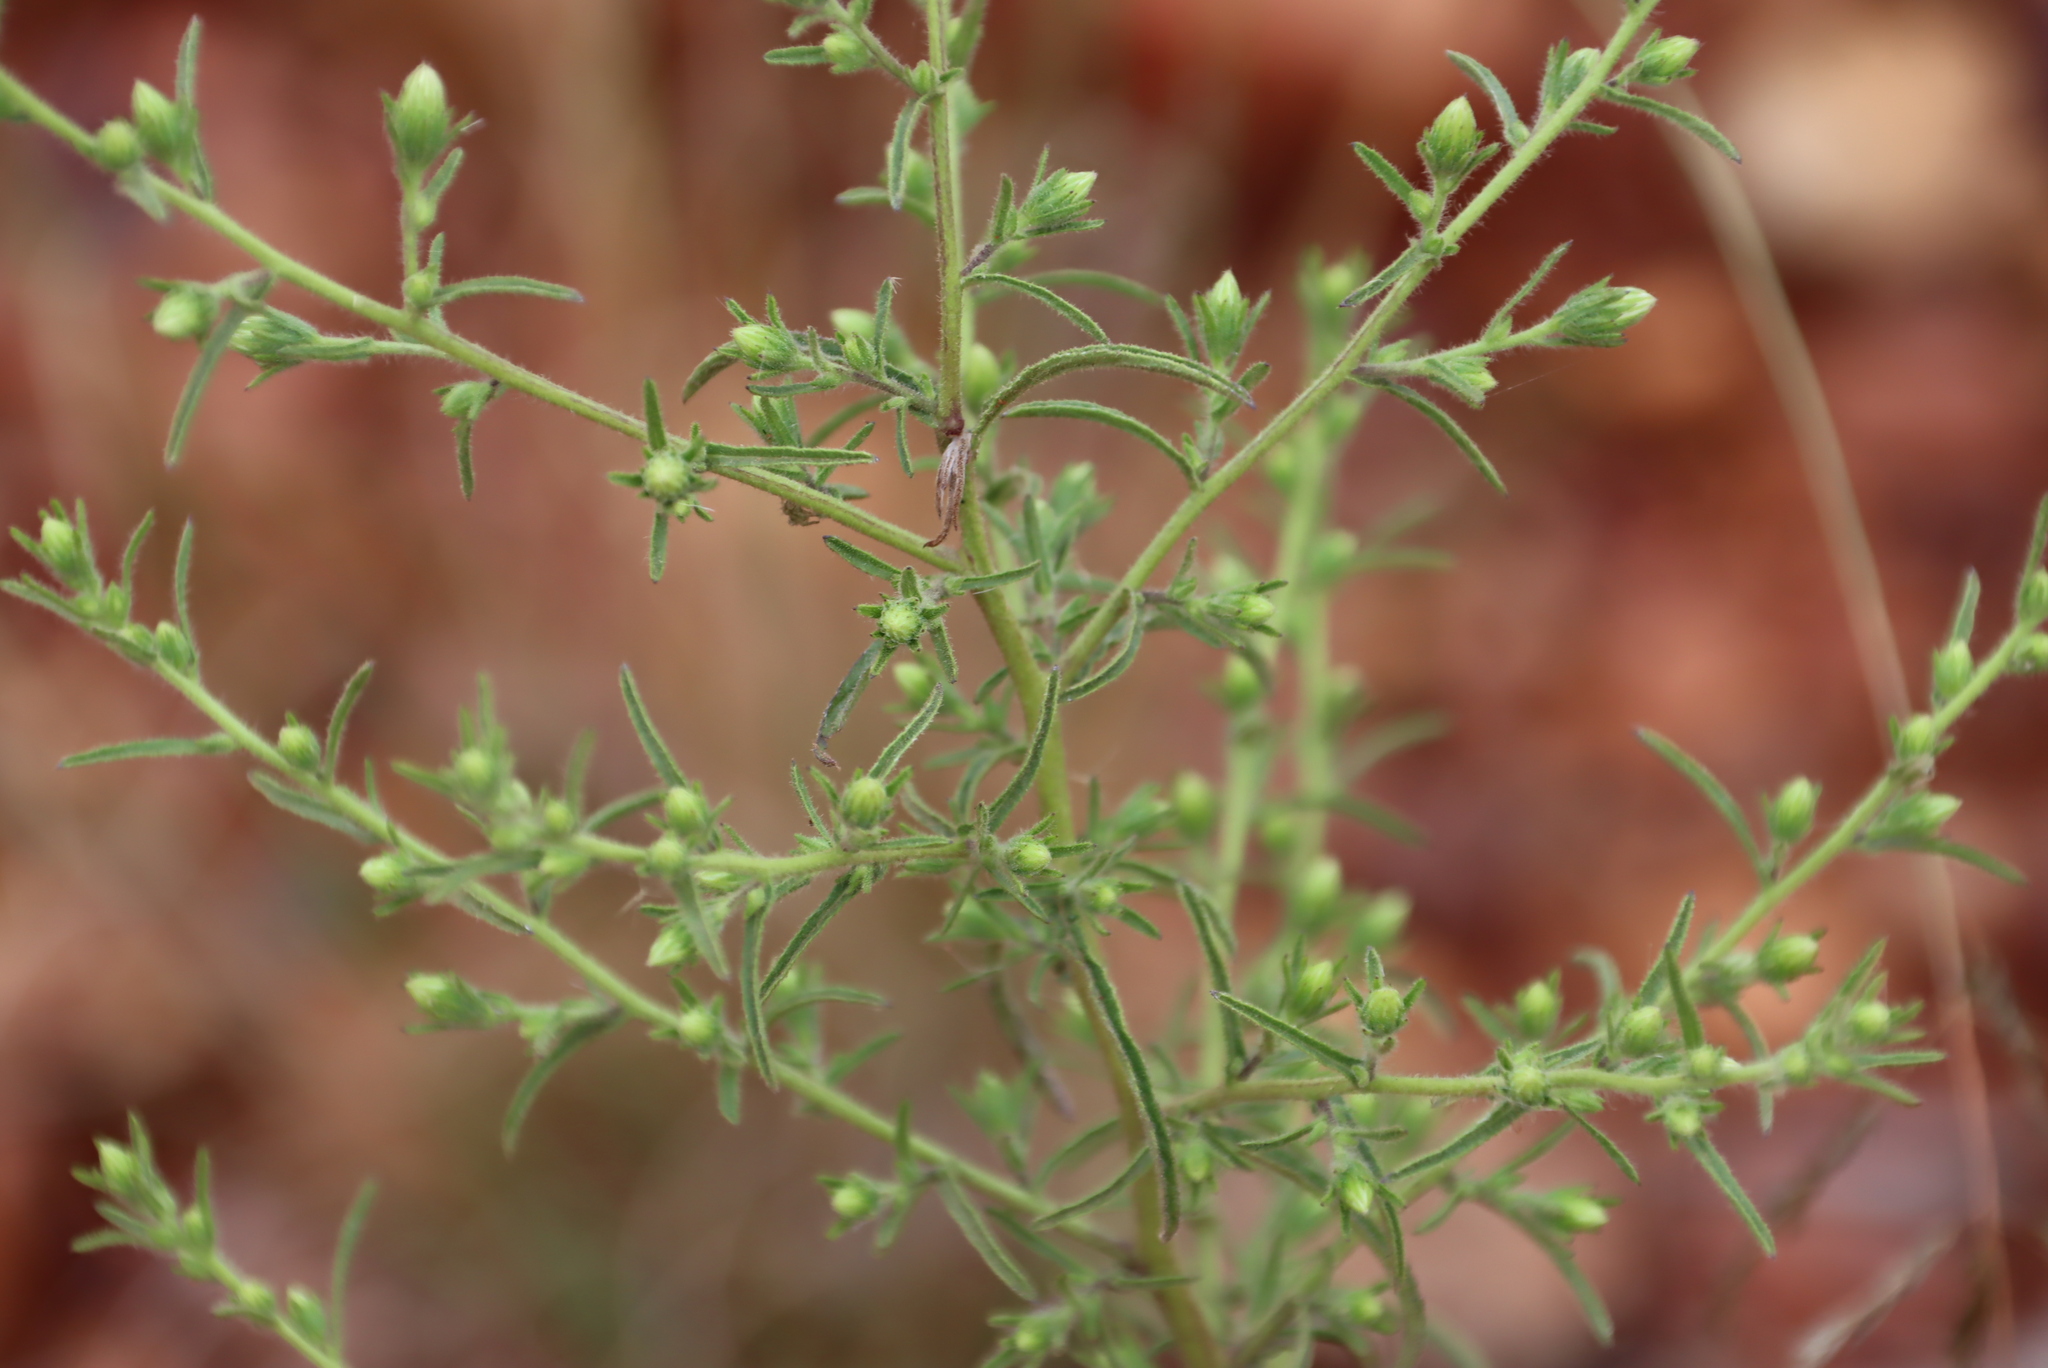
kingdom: Plantae
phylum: Tracheophyta
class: Magnoliopsida
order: Asterales
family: Asteraceae
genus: Dittrichia
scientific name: Dittrichia graveolens
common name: Stinking fleabane
